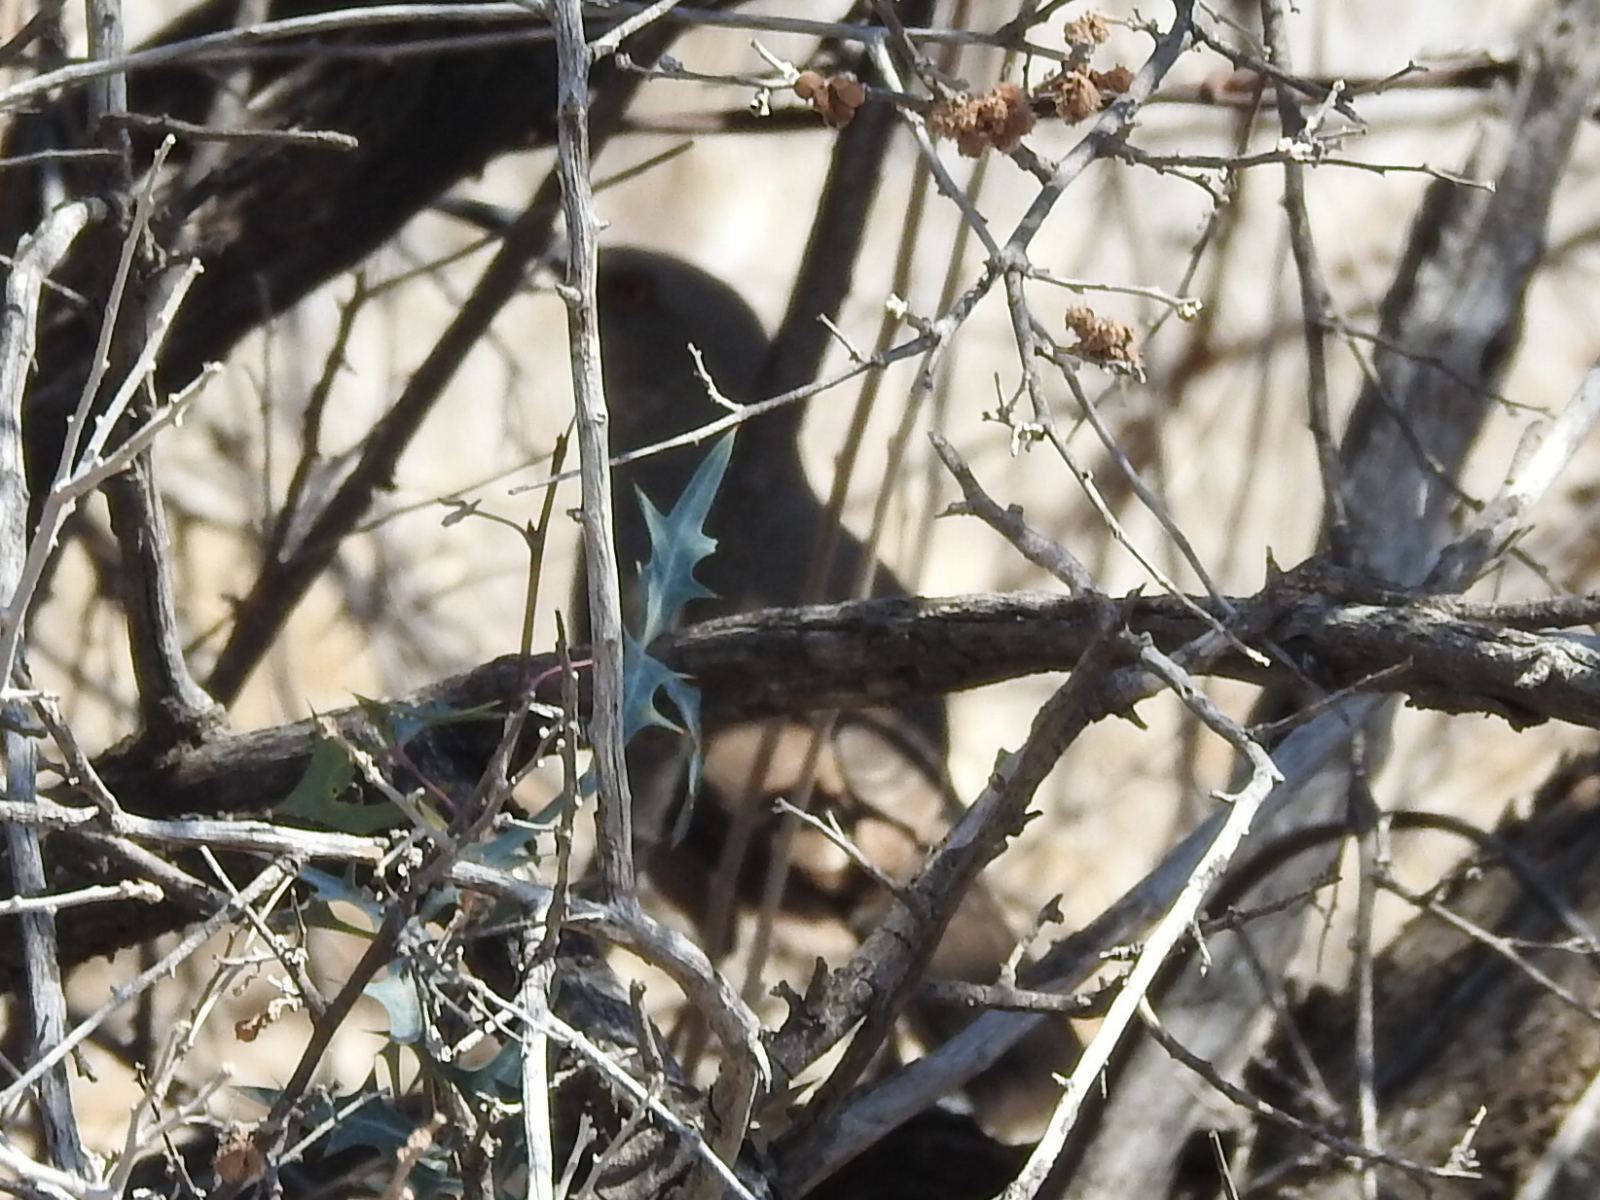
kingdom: Animalia
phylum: Chordata
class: Aves
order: Passeriformes
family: Mimidae
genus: Toxostoma
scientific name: Toxostoma curvirostre
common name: Curve-billed thrasher
